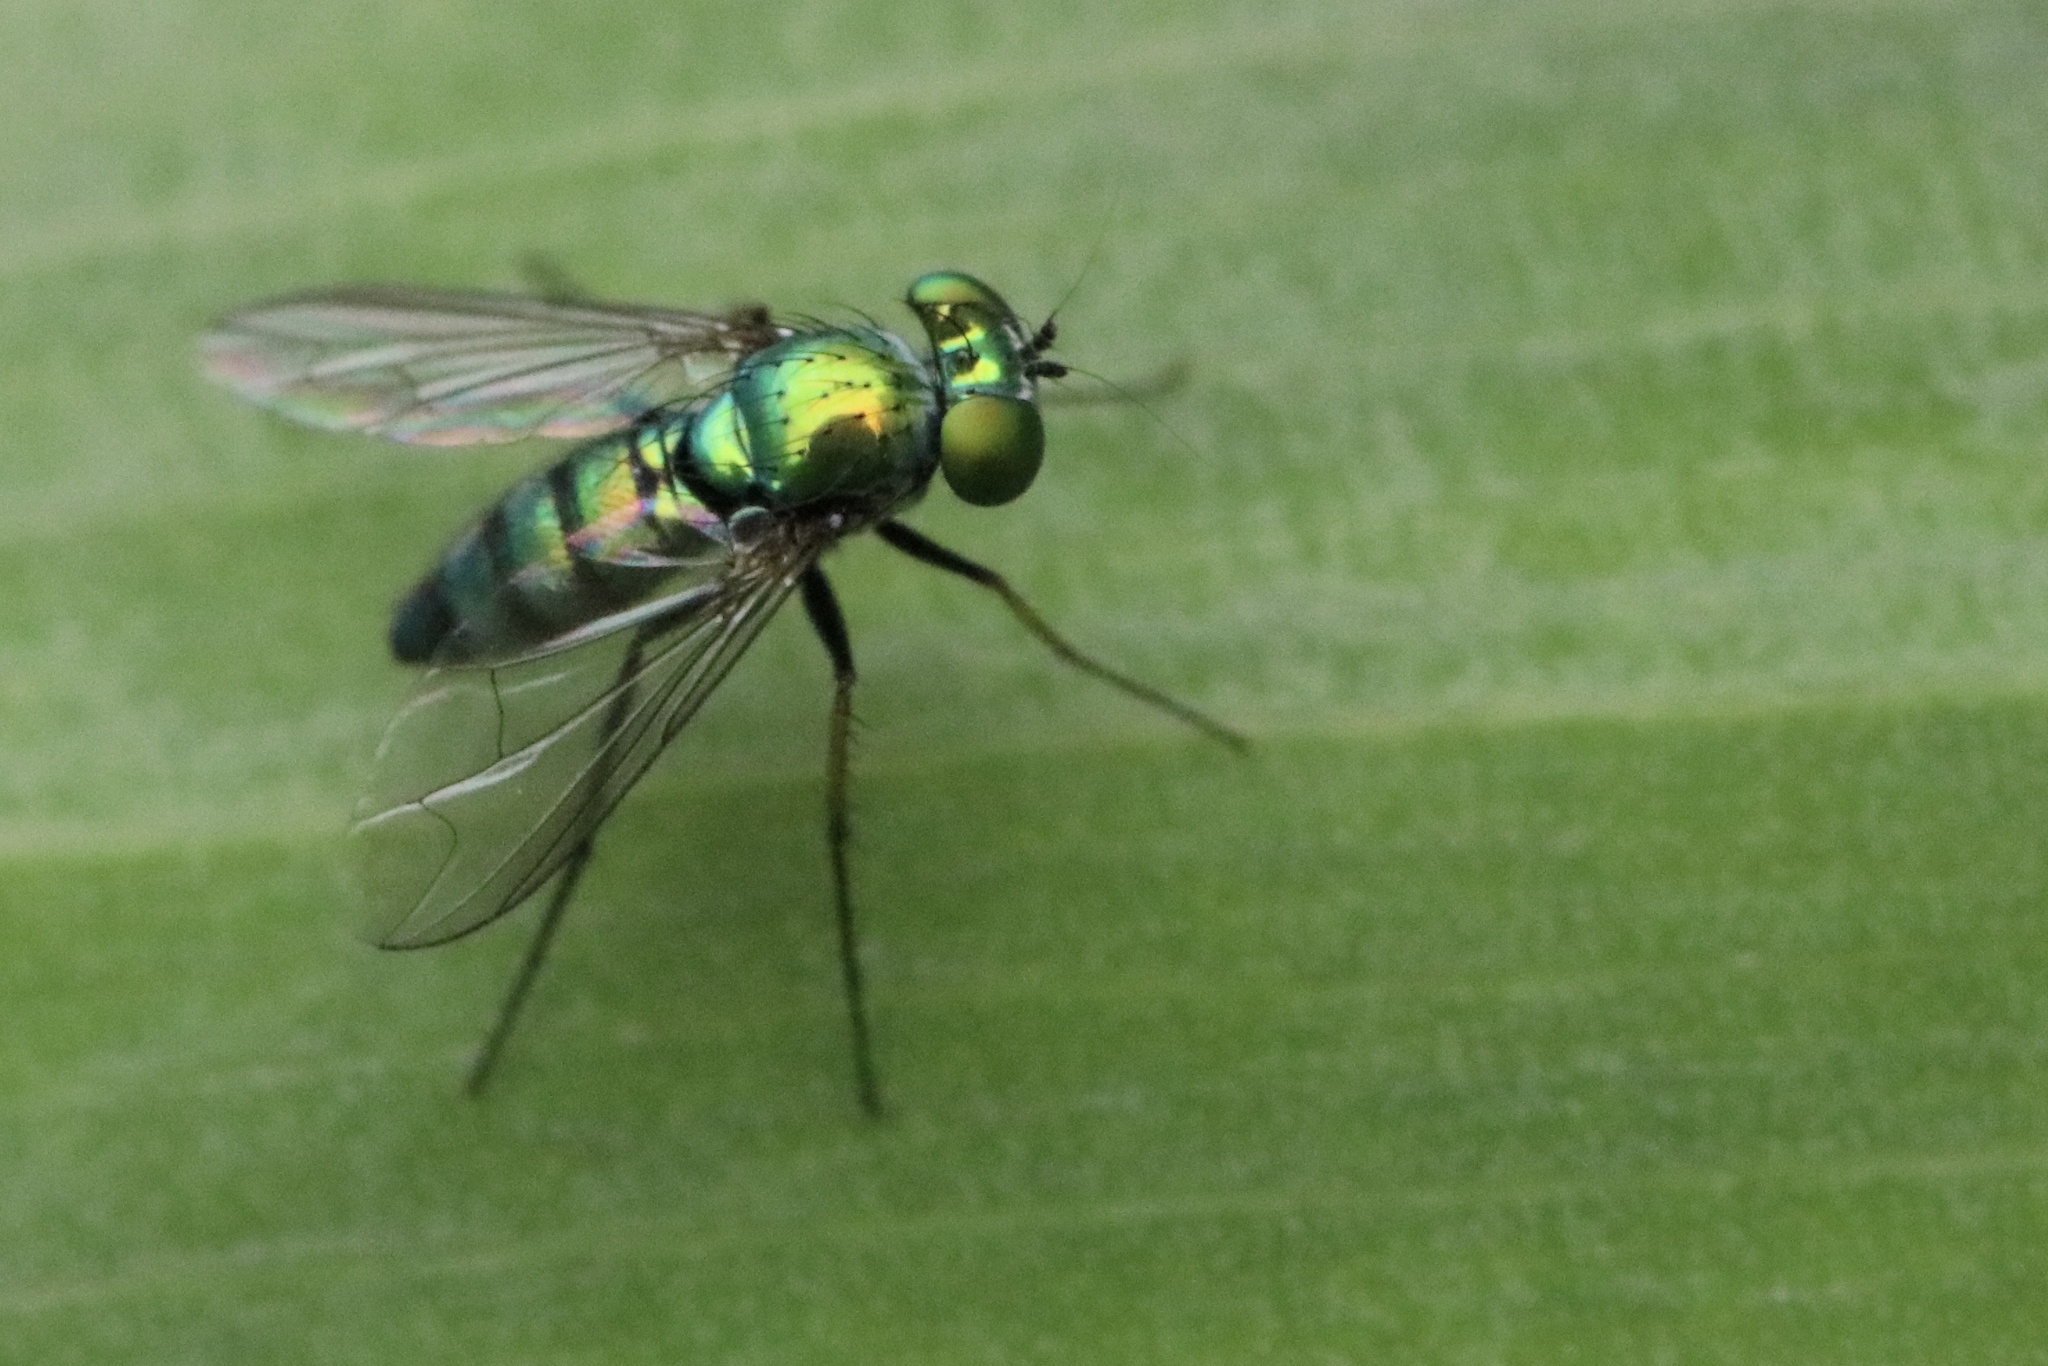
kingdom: Animalia
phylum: Arthropoda
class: Insecta
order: Diptera
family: Dolichopodidae
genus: Condylostylus
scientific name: Condylostylus longicornis
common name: Long-legged fly
